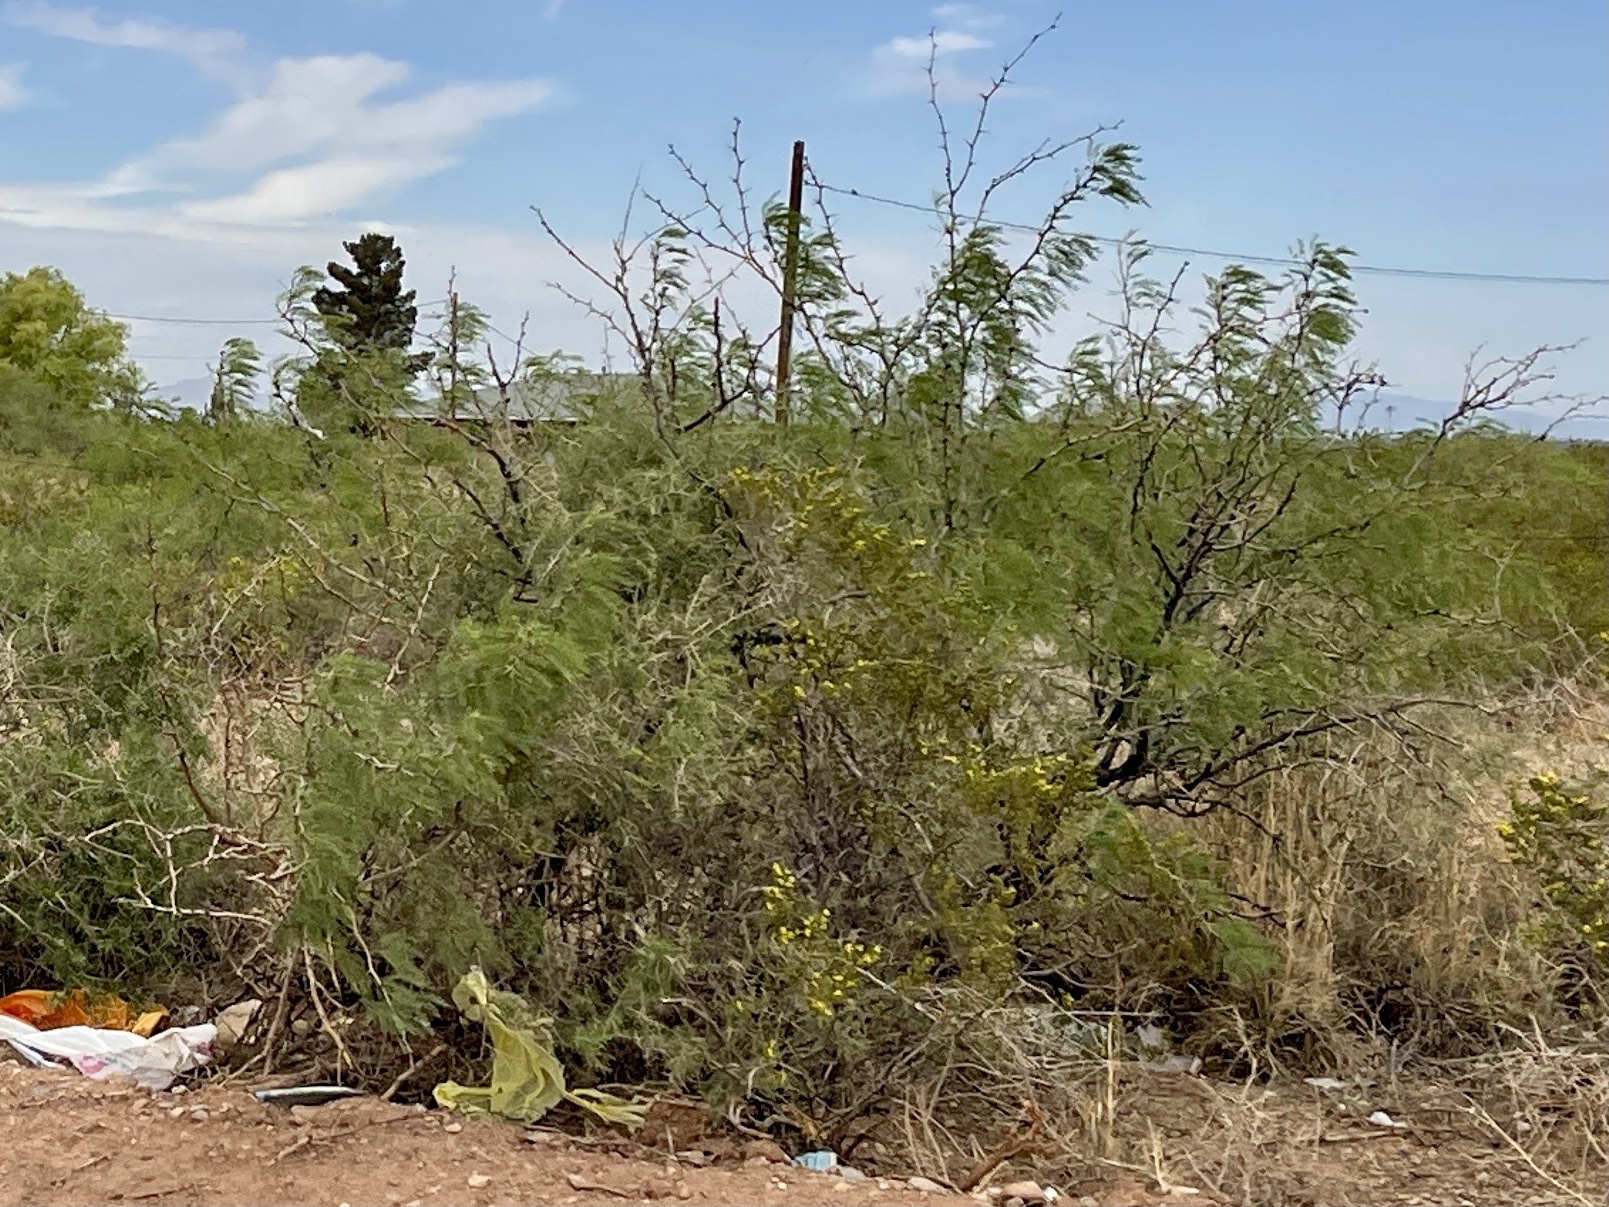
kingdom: Plantae
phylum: Tracheophyta
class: Magnoliopsida
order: Fabales
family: Fabaceae
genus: Prosopis
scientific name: Prosopis glandulosa
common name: Honey mesquite
